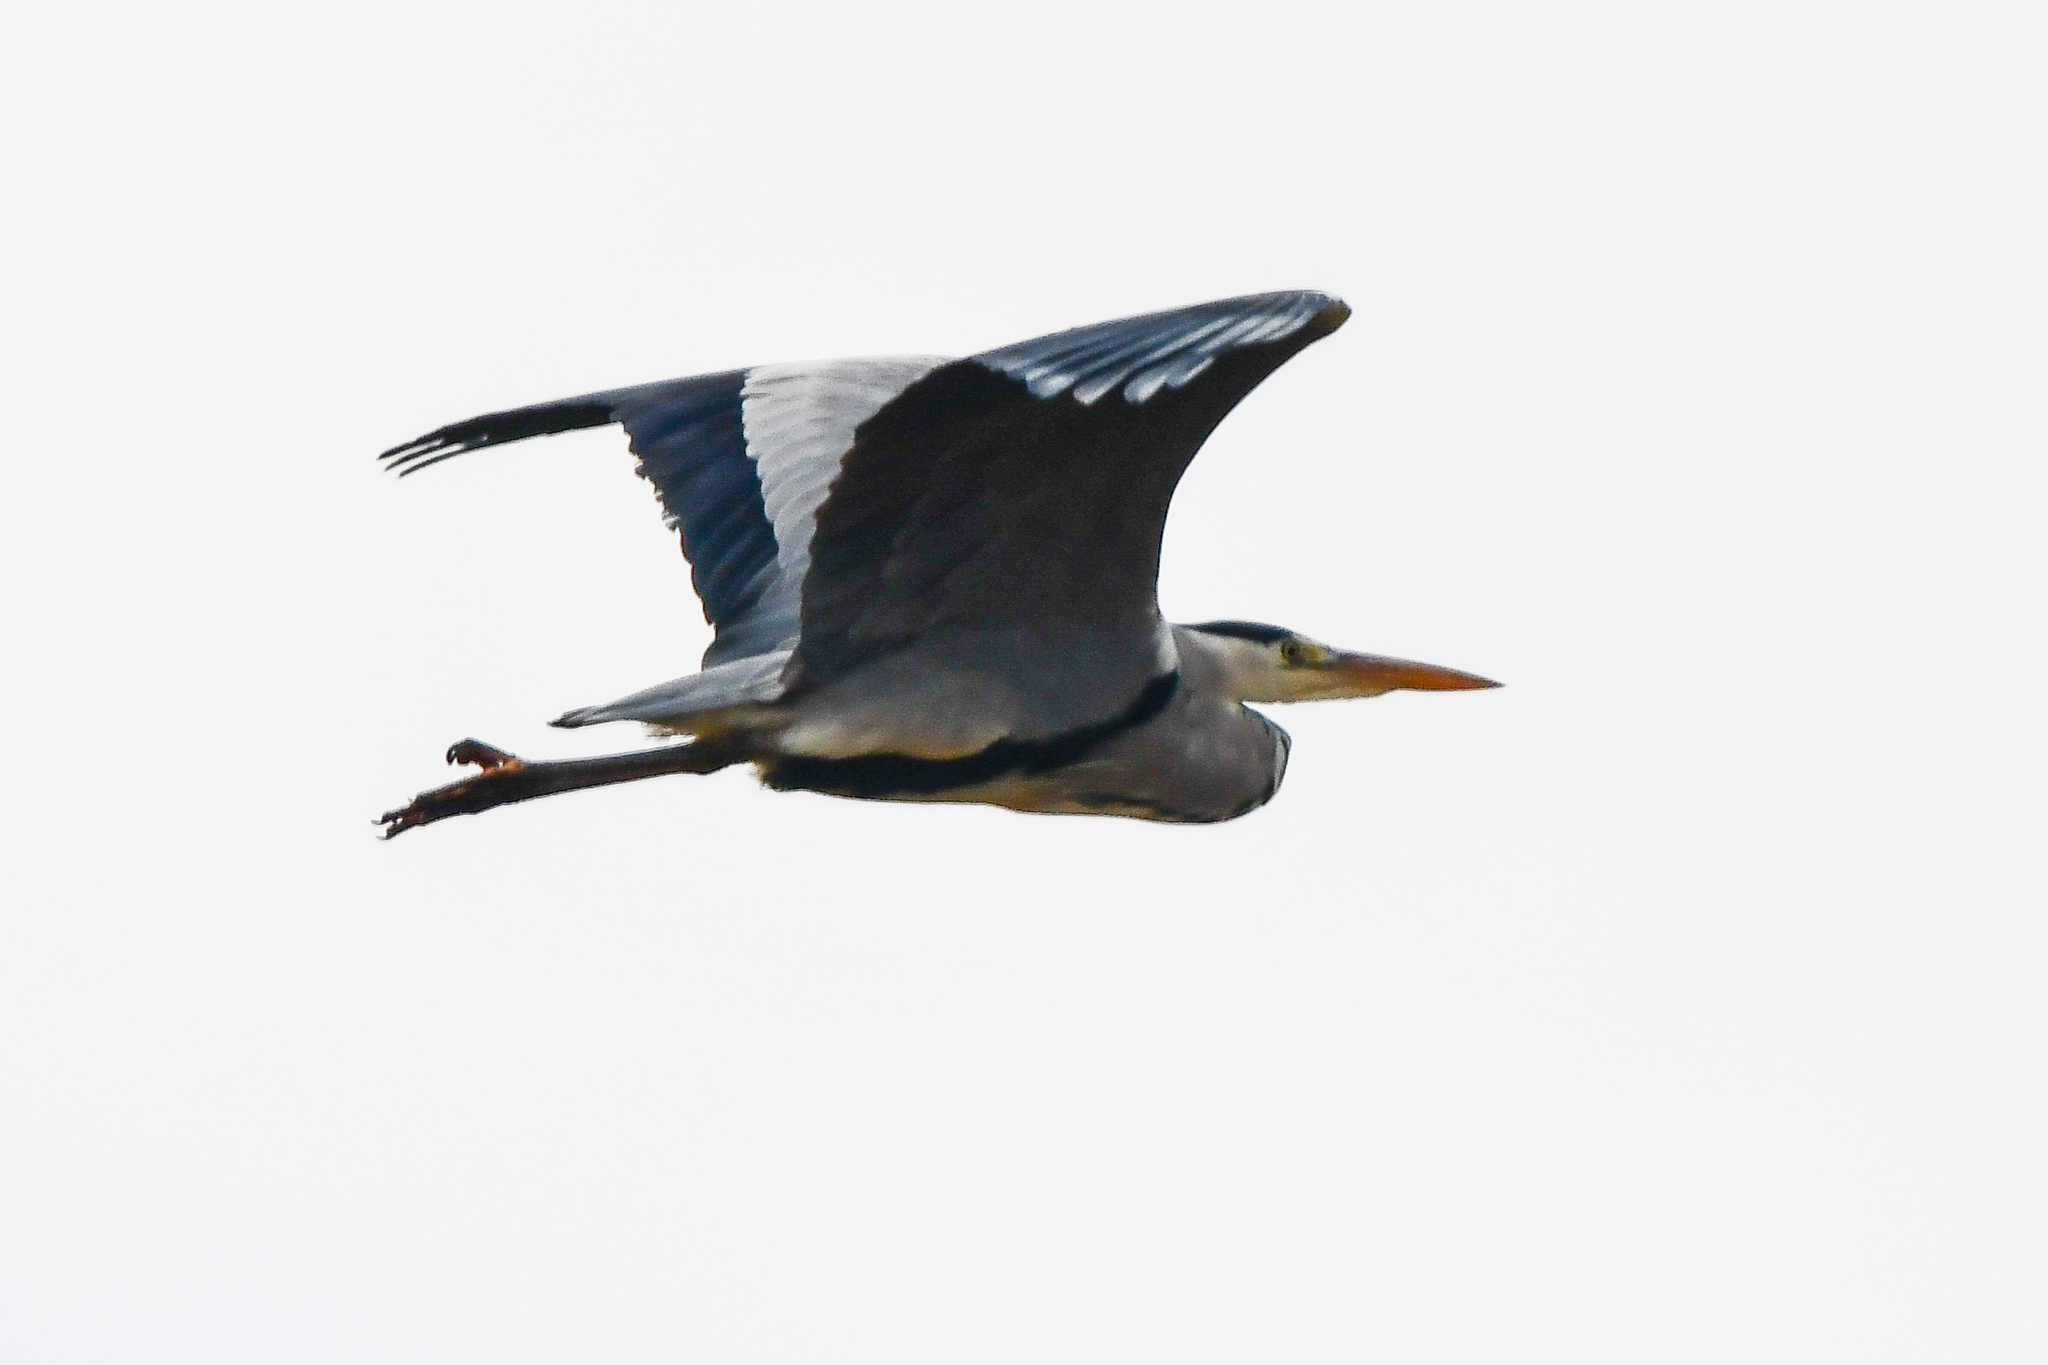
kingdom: Animalia
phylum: Chordata
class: Aves
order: Pelecaniformes
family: Ardeidae
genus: Ardea
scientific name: Ardea cinerea
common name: Grey heron
